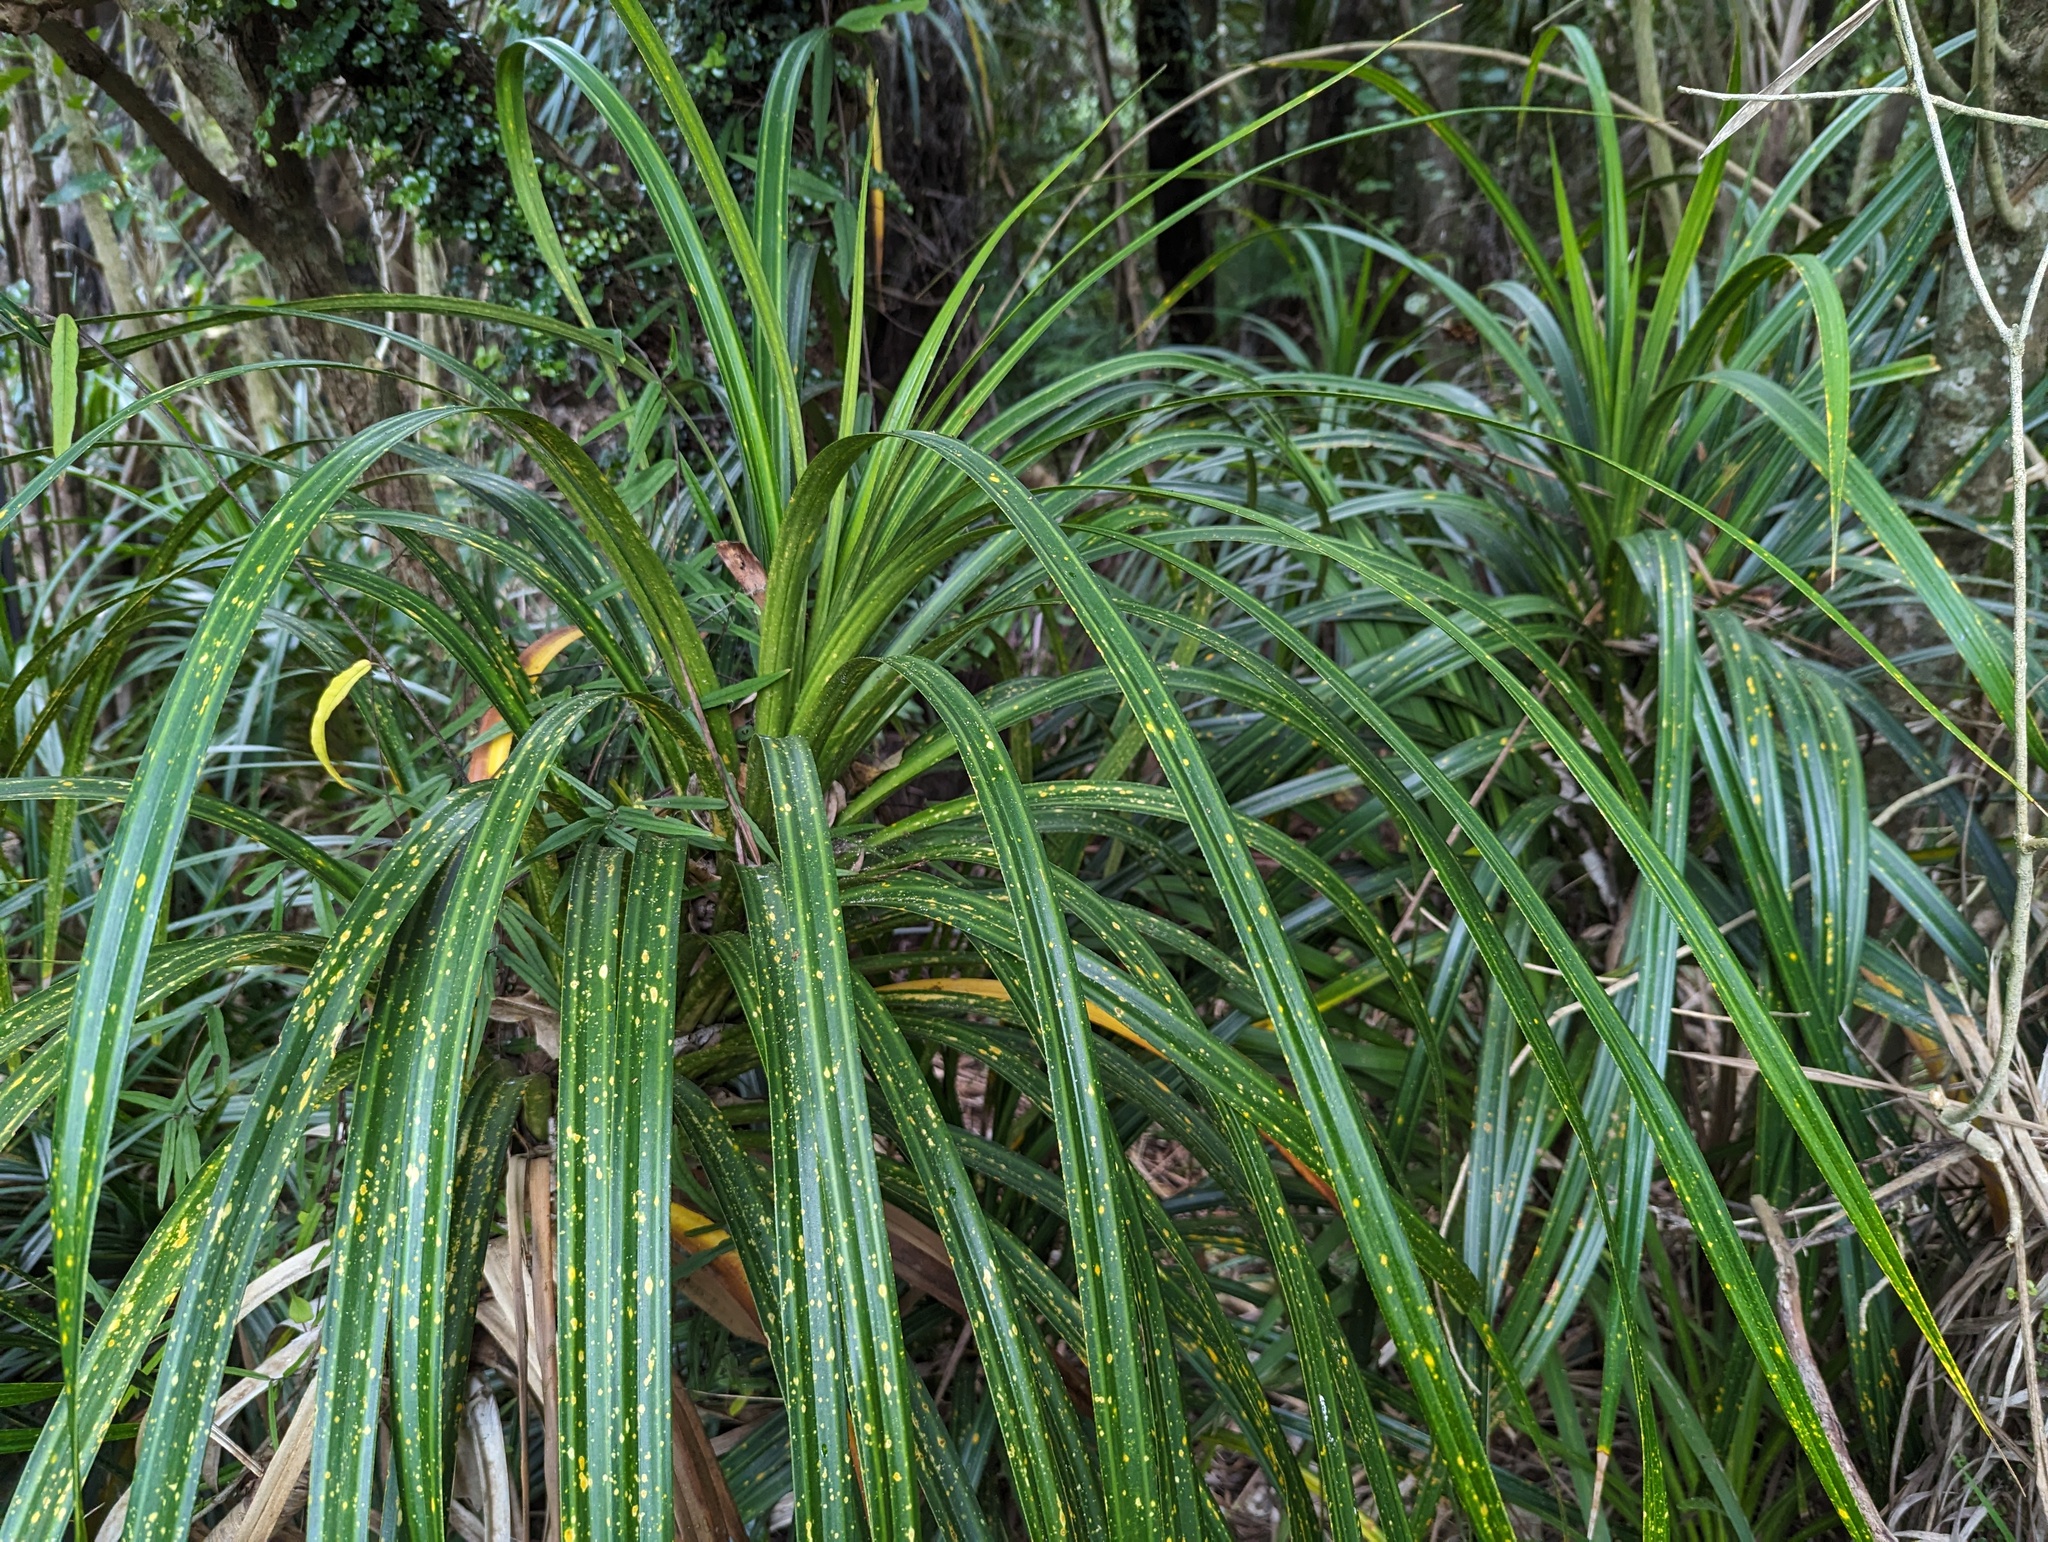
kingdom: Plantae
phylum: Tracheophyta
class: Liliopsida
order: Pandanales
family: Pandanaceae
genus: Freycinetia
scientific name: Freycinetia banksii
